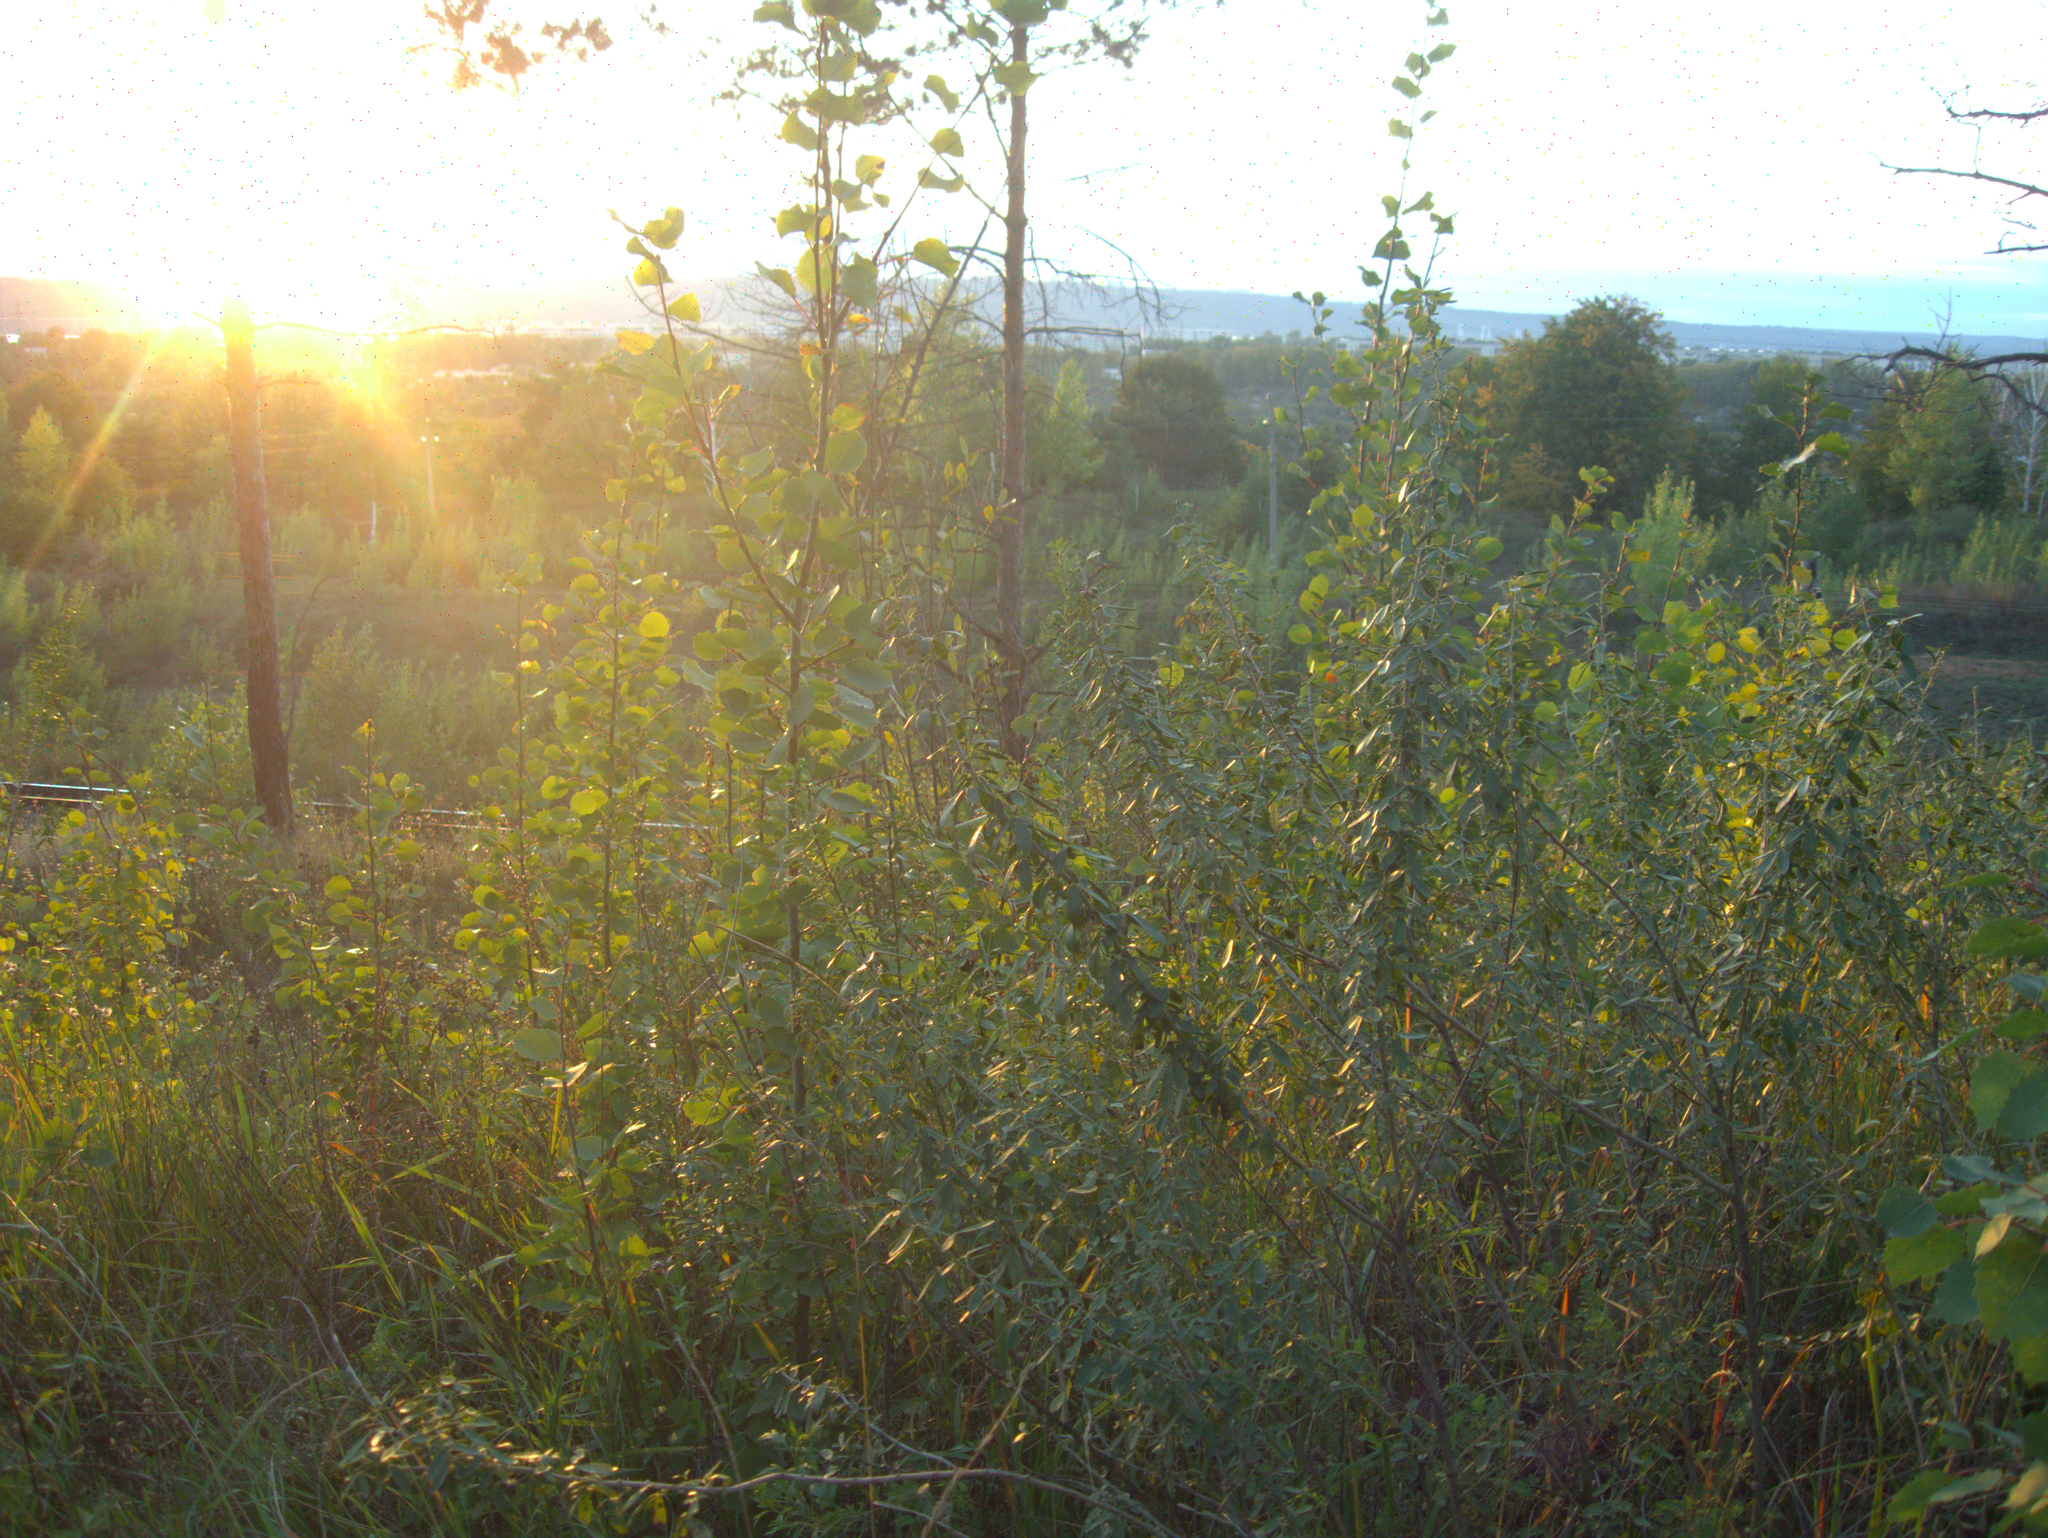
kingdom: Plantae
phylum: Tracheophyta
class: Magnoliopsida
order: Fabales
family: Fabaceae
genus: Chamaecytisus
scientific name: Chamaecytisus ruthenicus
